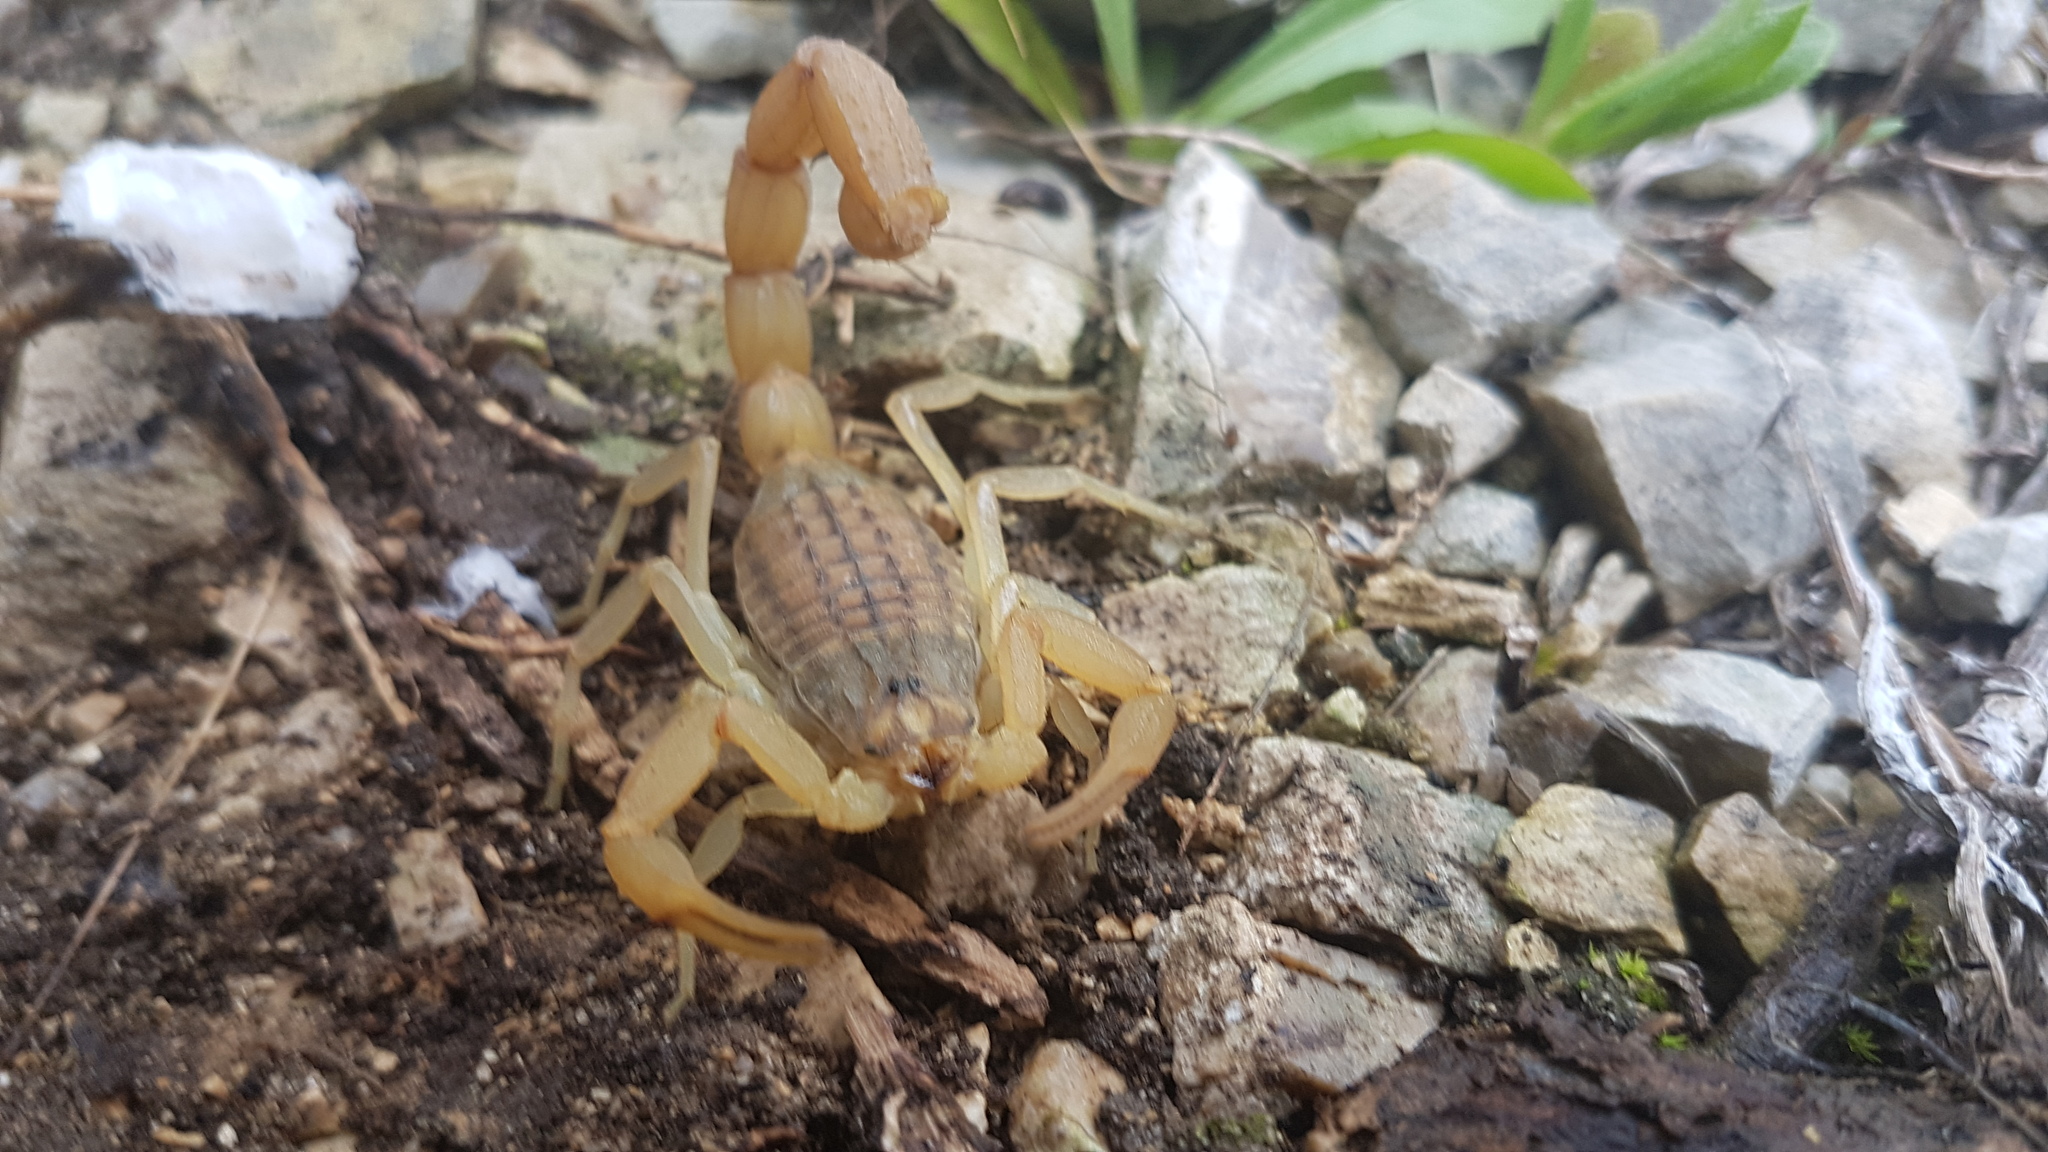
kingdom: Animalia
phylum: Arthropoda
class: Arachnida
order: Scorpiones
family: Buthidae
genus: Aegaeobuthus
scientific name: Aegaeobuthus gibbosus
